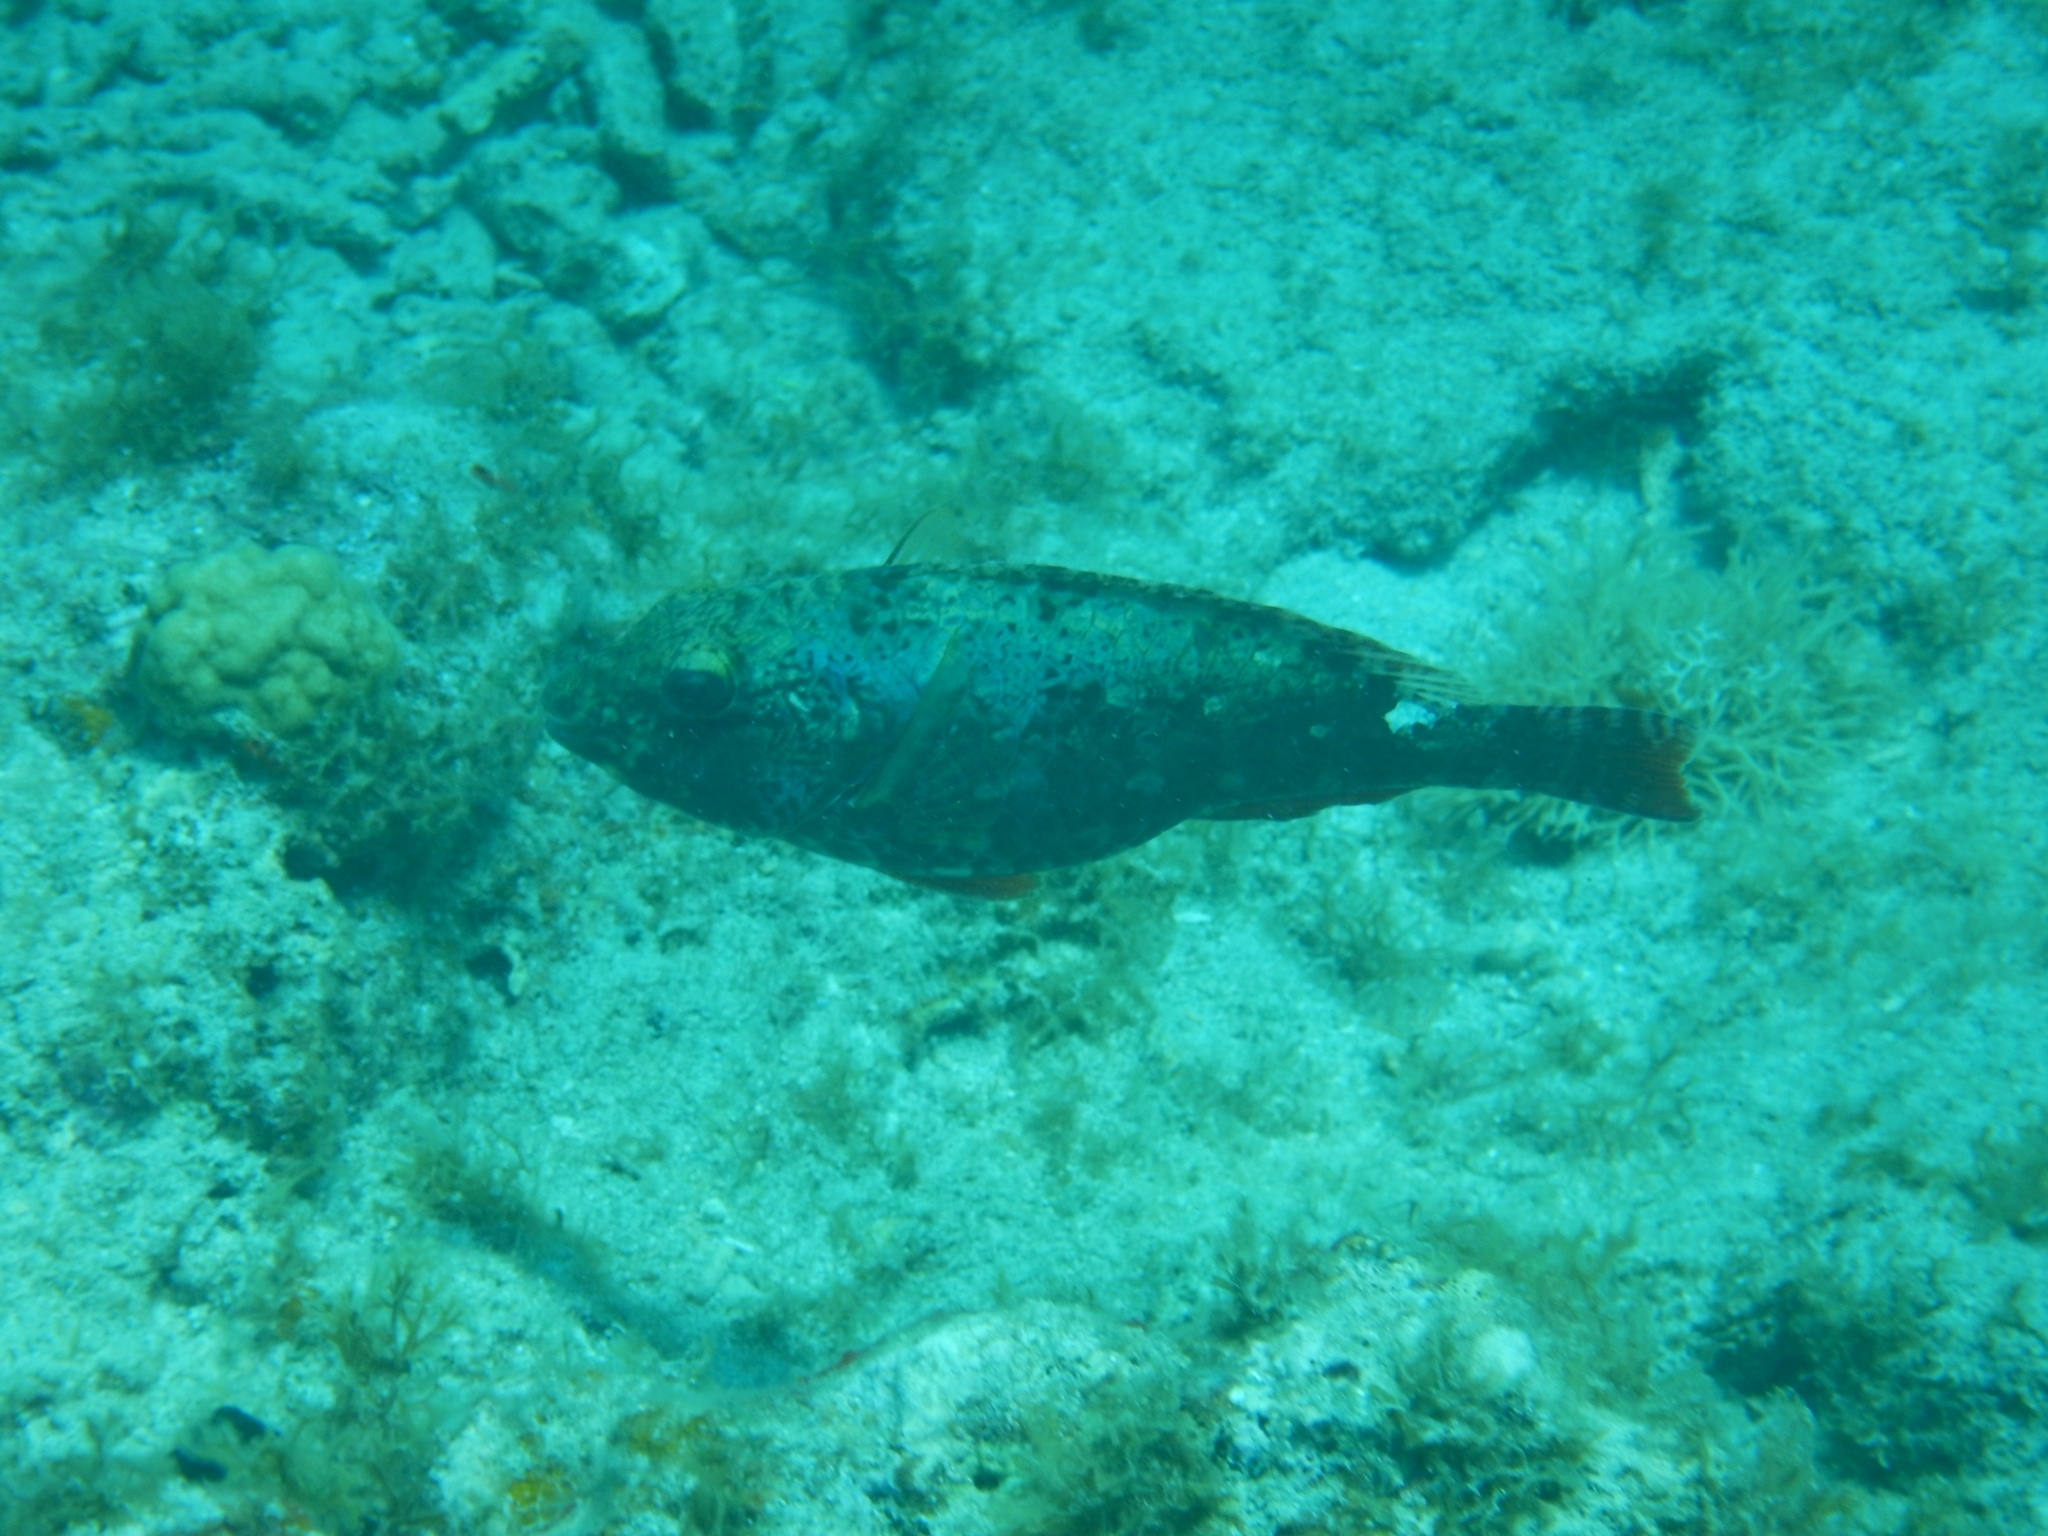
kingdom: Animalia
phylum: Chordata
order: Perciformes
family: Scaridae
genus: Sparisoma
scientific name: Sparisoma aurofrenatum
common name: Redband parrotfish
